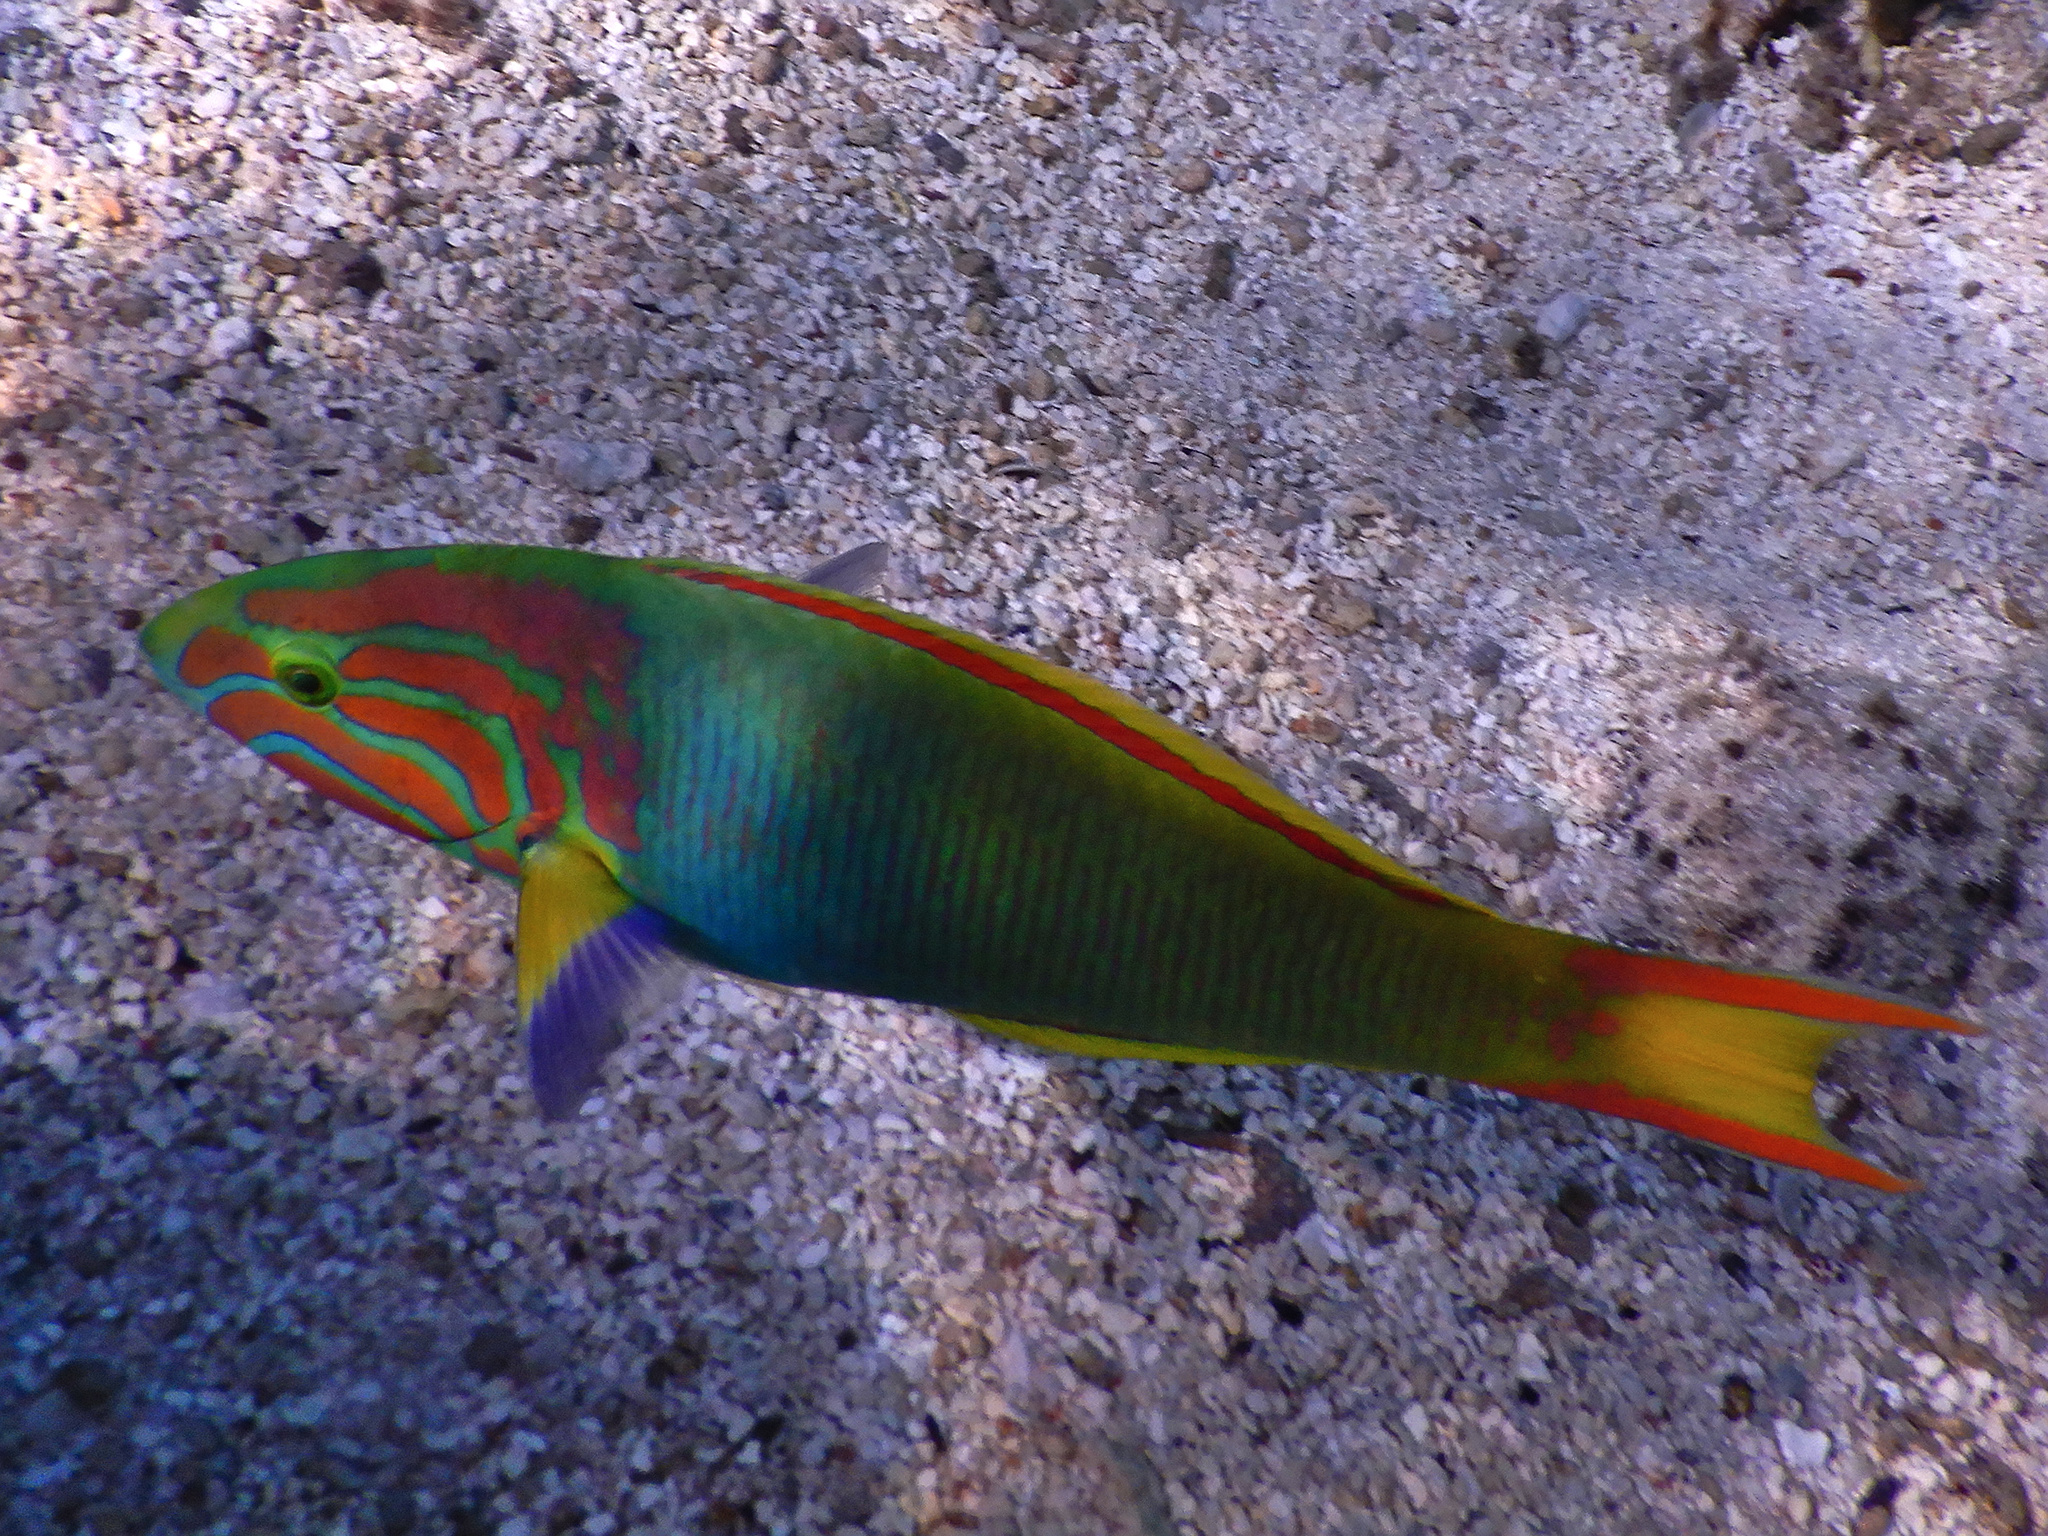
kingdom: Animalia
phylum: Chordata
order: Perciformes
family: Labridae
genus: Thalassoma
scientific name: Thalassoma lutescens
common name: Green moon wrasse
